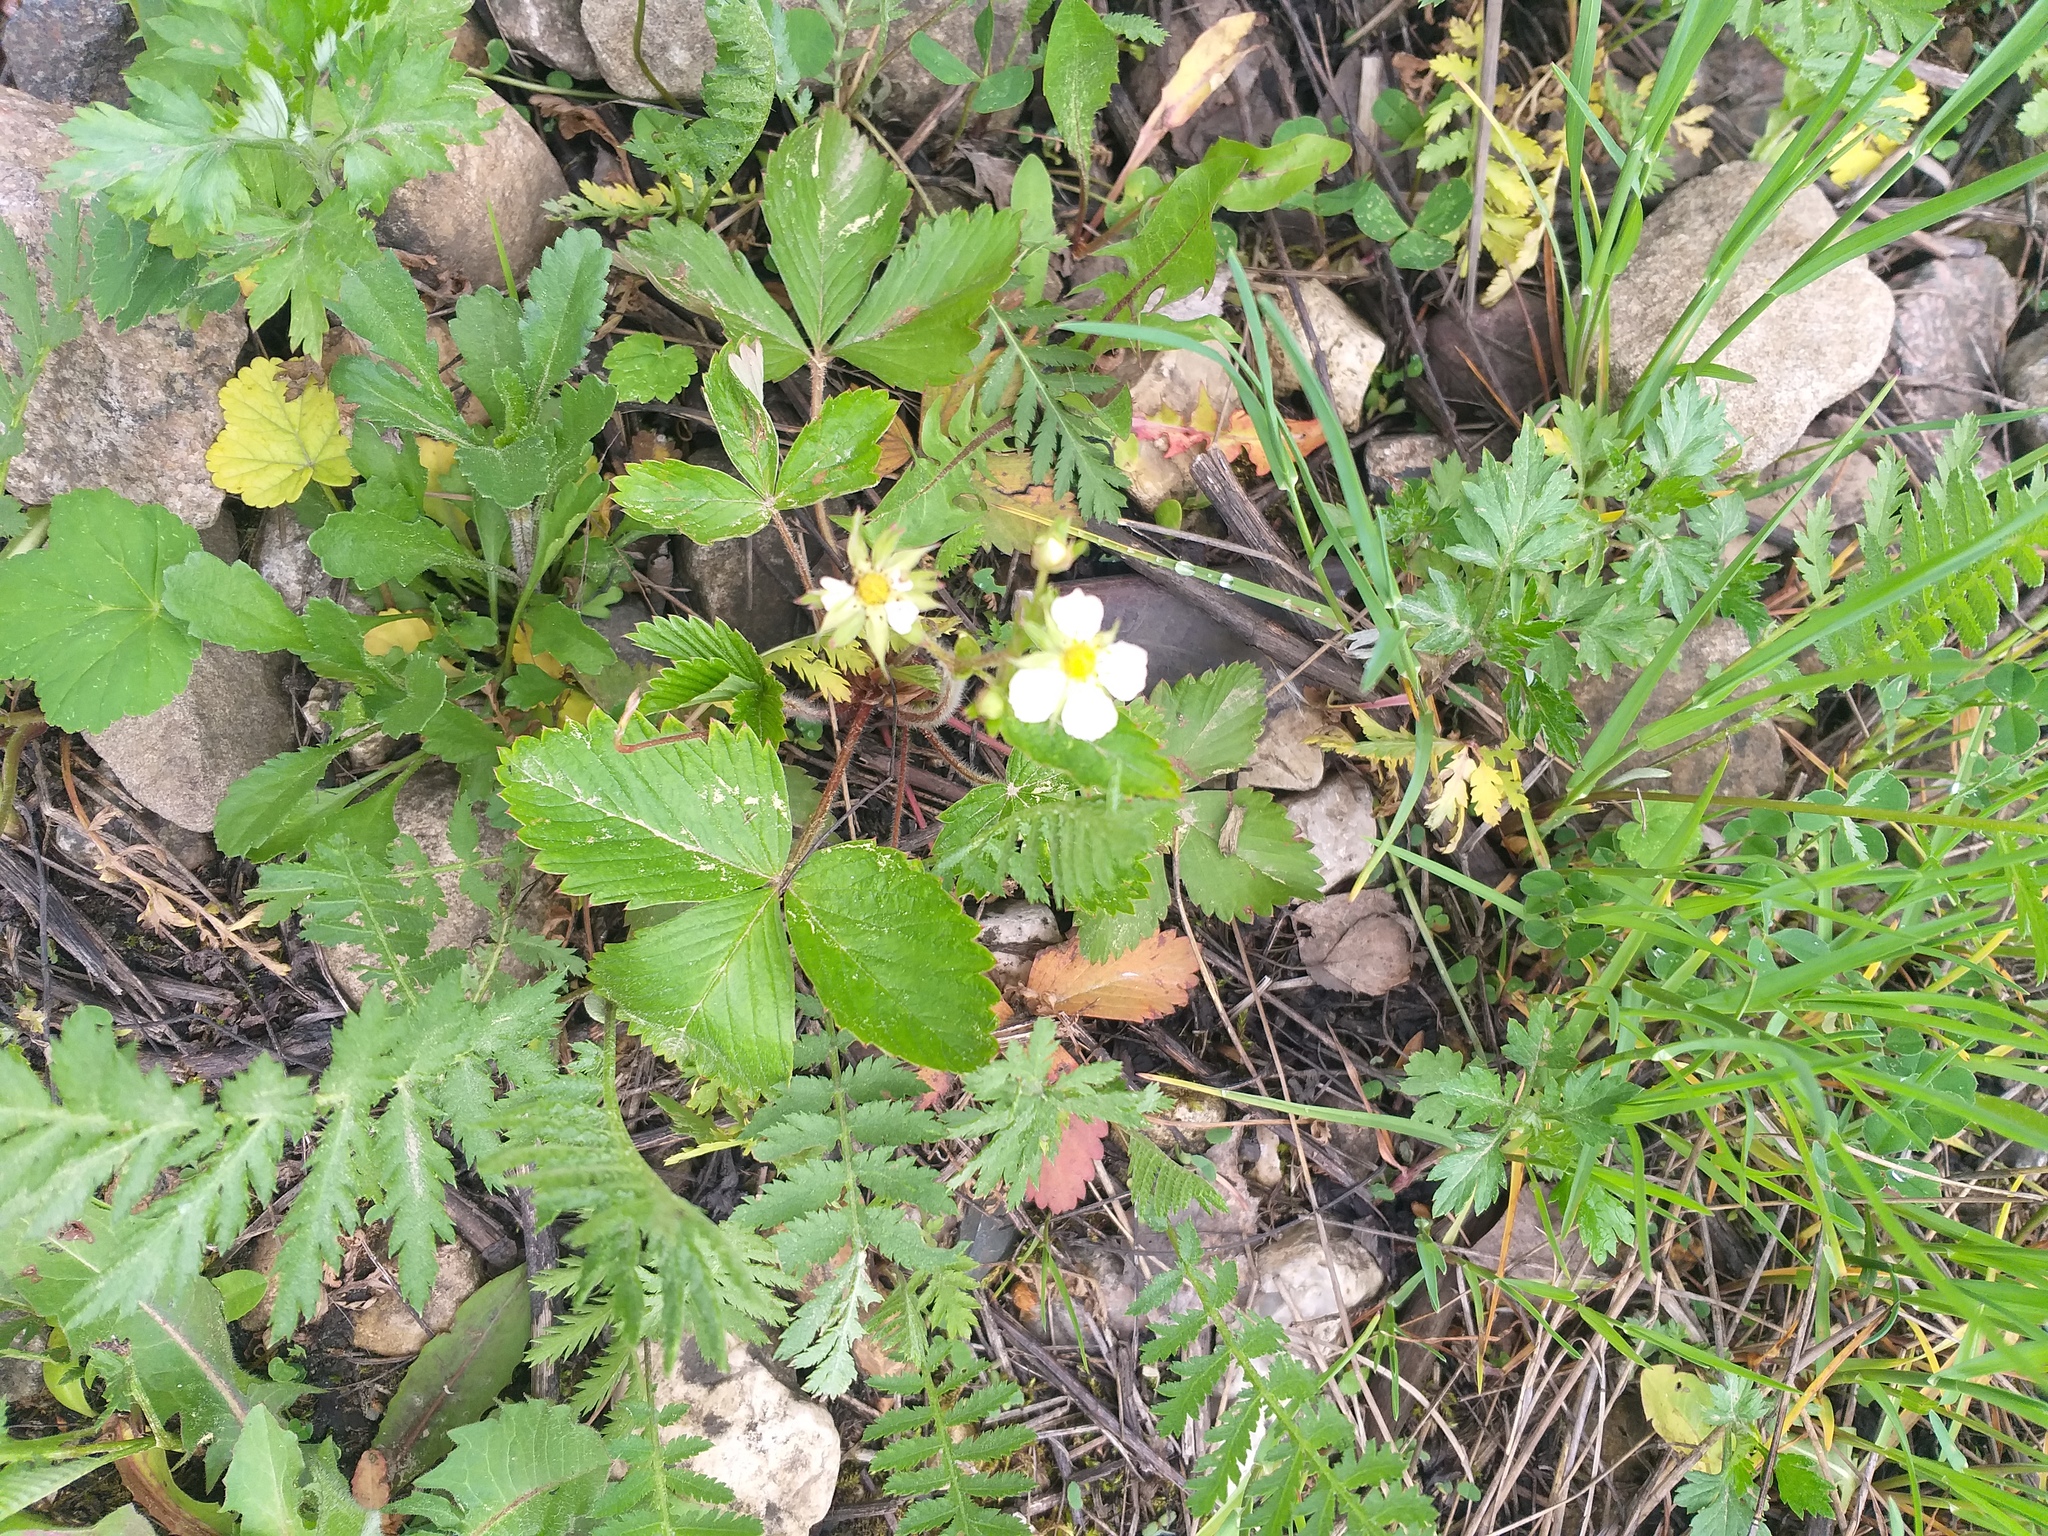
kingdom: Plantae
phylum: Tracheophyta
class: Magnoliopsida
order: Rosales
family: Rosaceae
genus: Fragaria
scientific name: Fragaria vesca
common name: Wild strawberry
